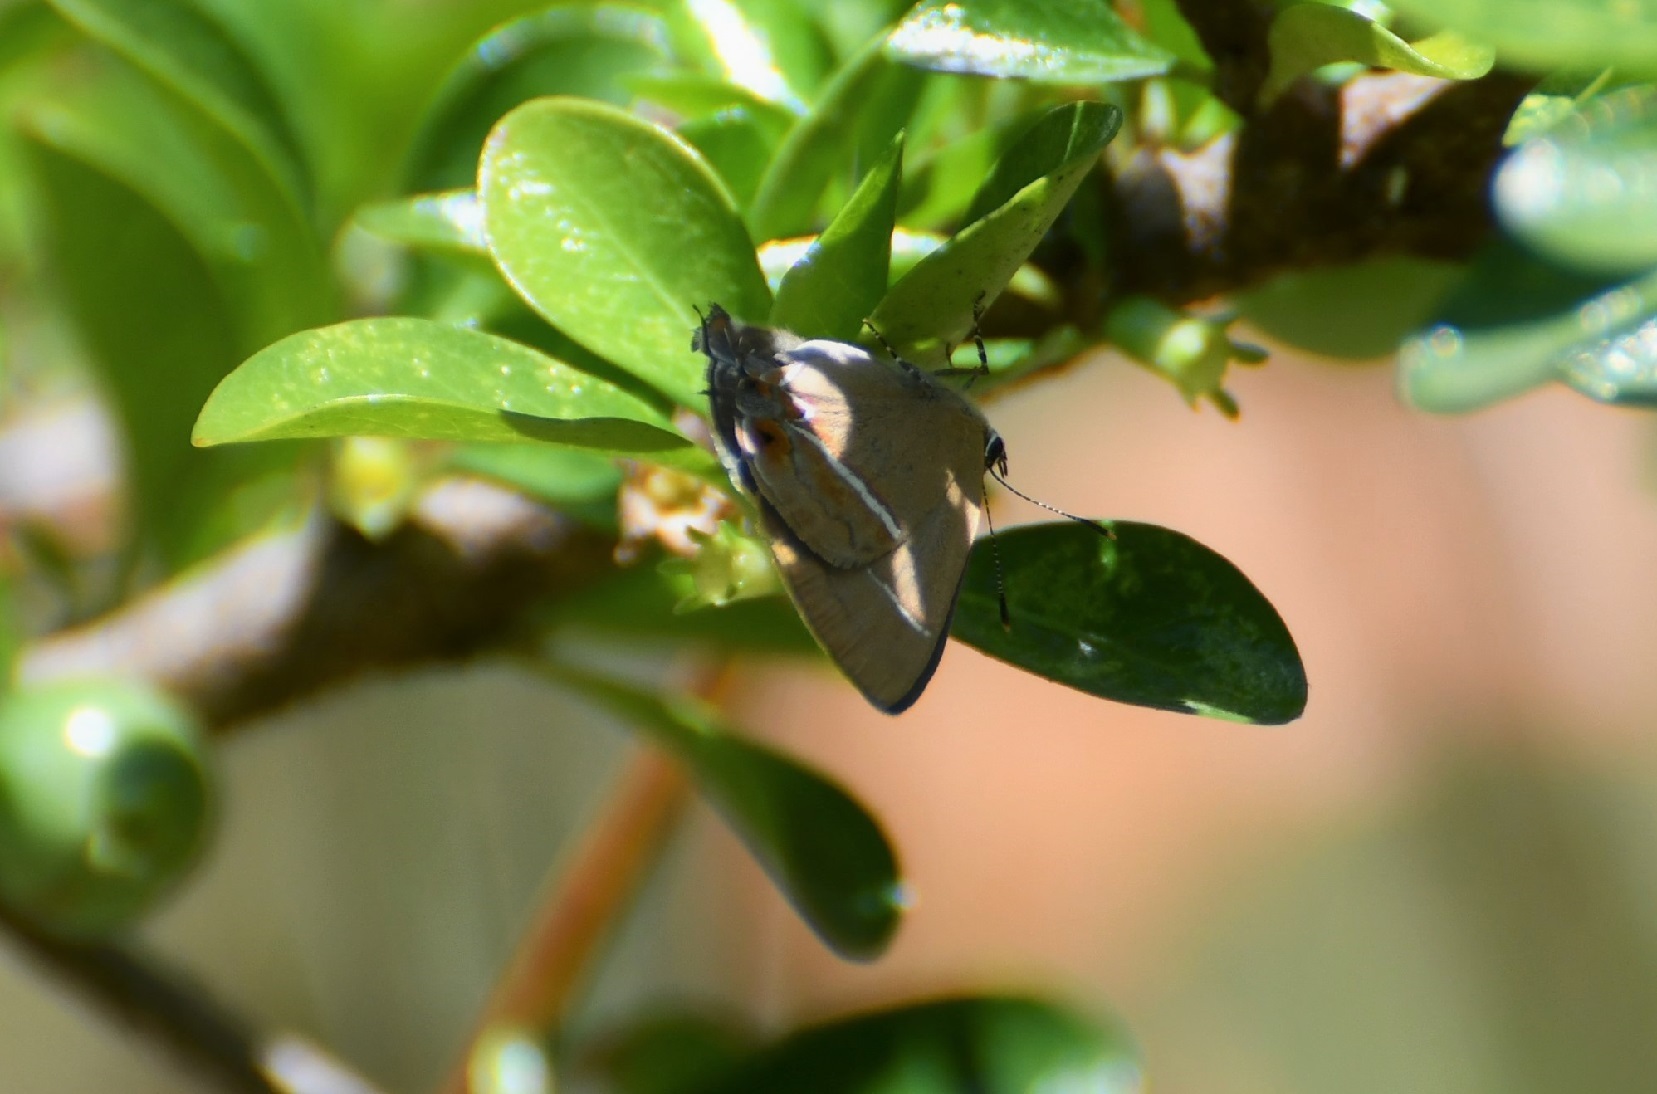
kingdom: Animalia
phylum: Arthropoda
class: Insecta
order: Lepidoptera
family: Lycaenidae
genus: Calycopis
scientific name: Calycopis clarina
